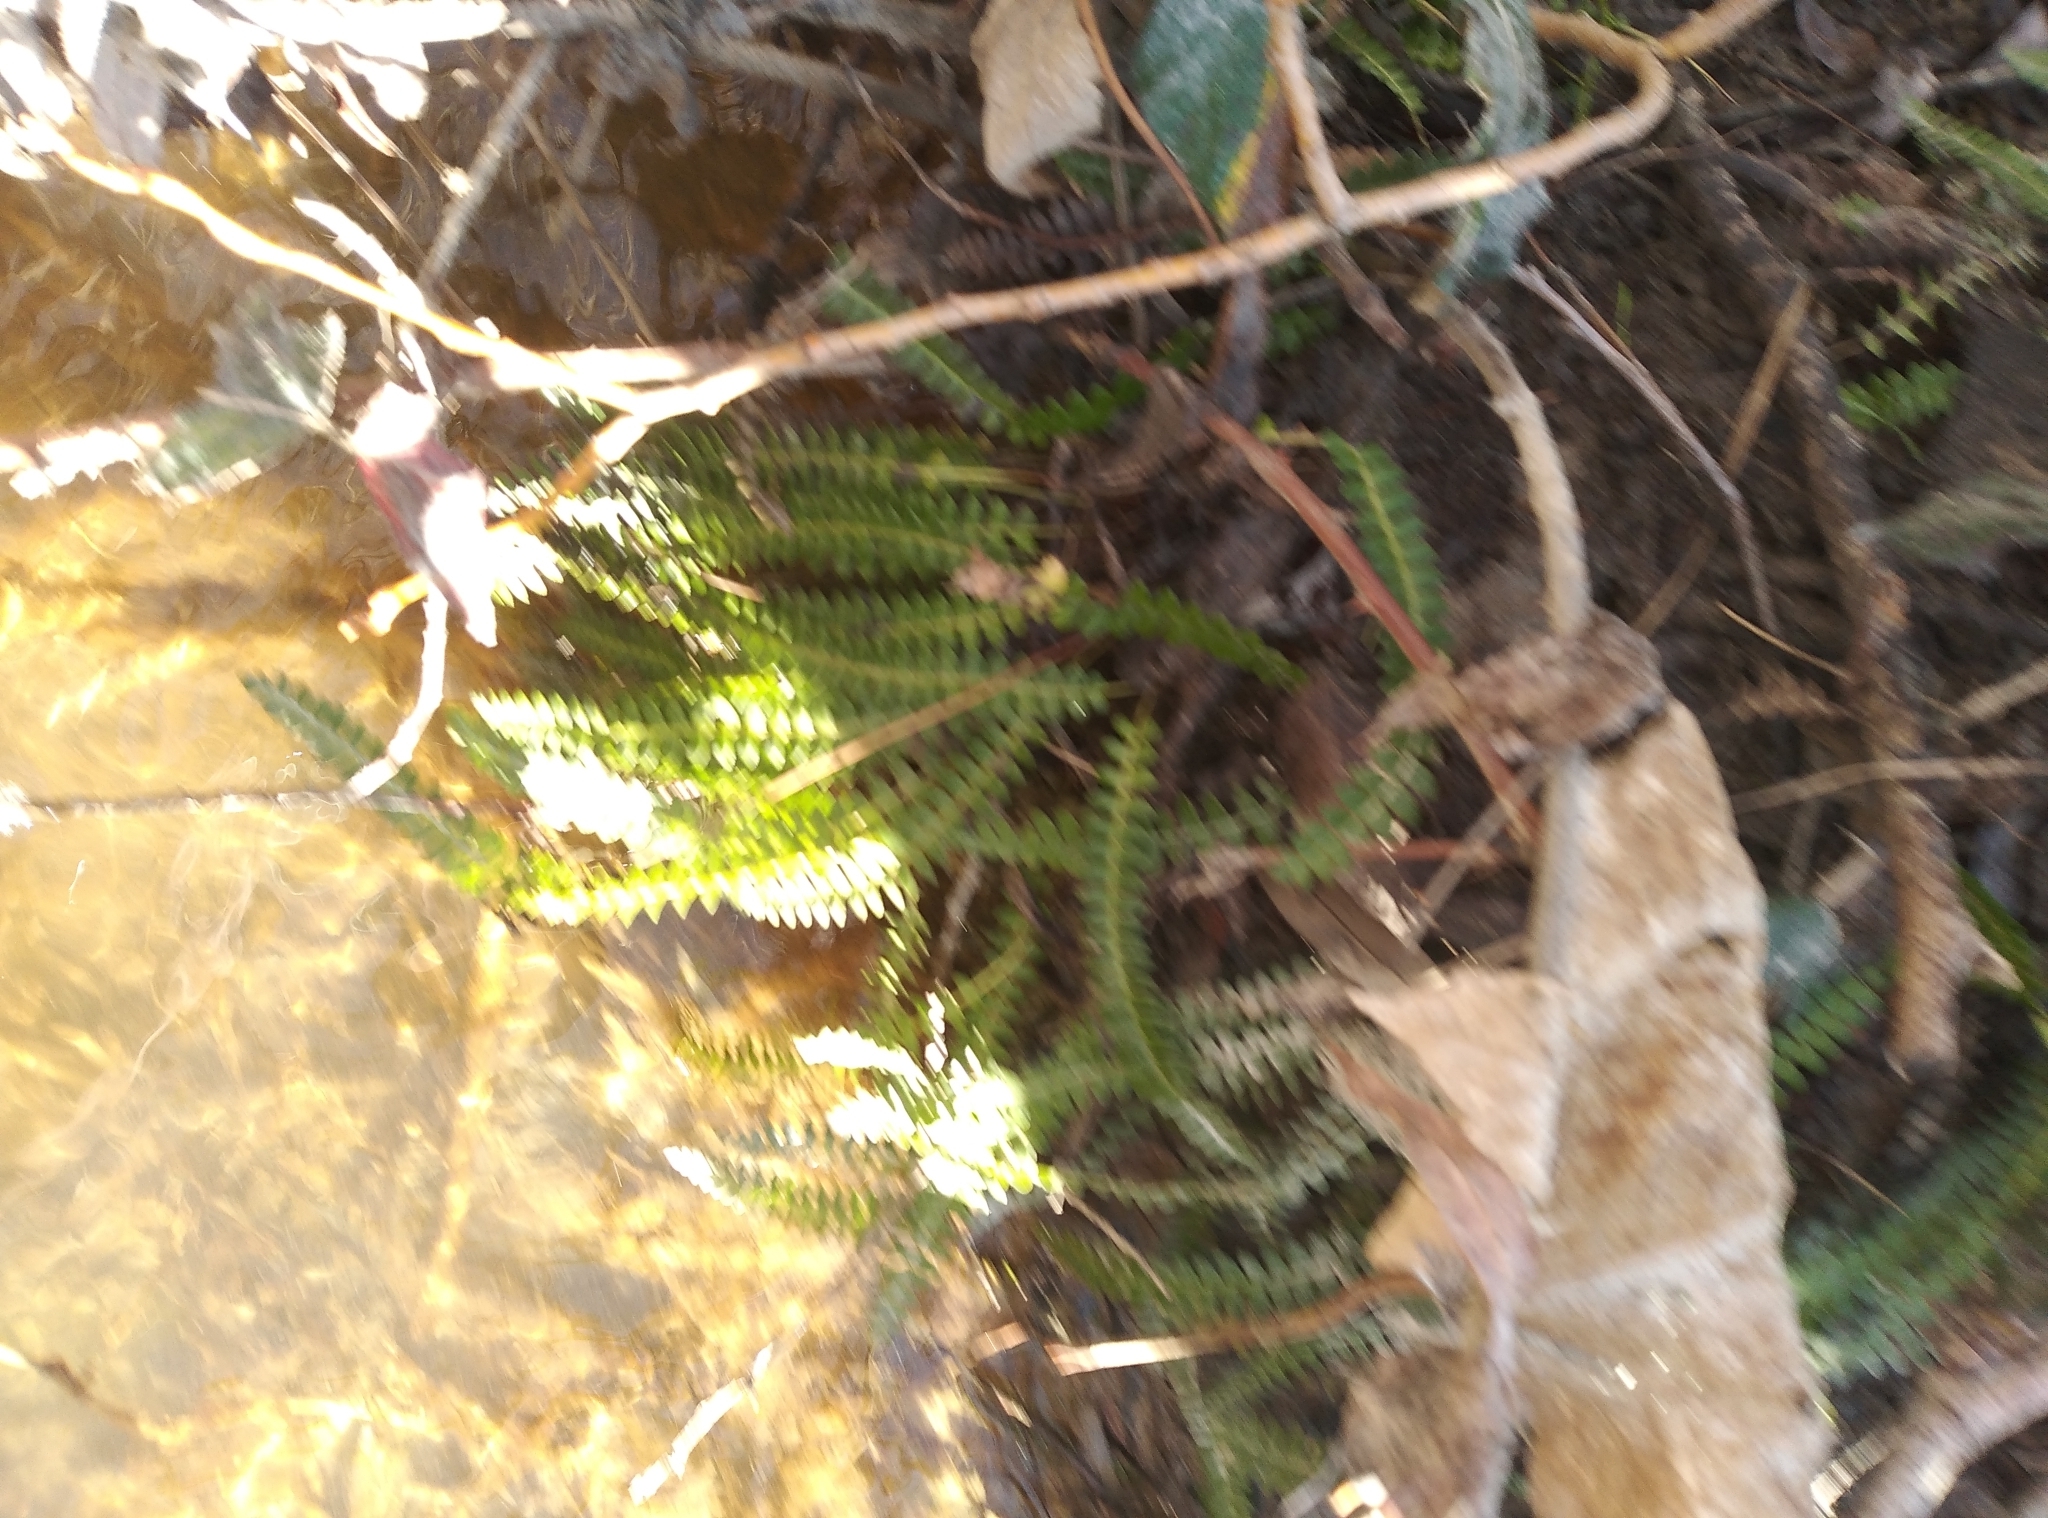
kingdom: Plantae
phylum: Tracheophyta
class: Polypodiopsida
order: Polypodiales
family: Blechnaceae
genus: Austroblechnum
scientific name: Austroblechnum penna-marina
